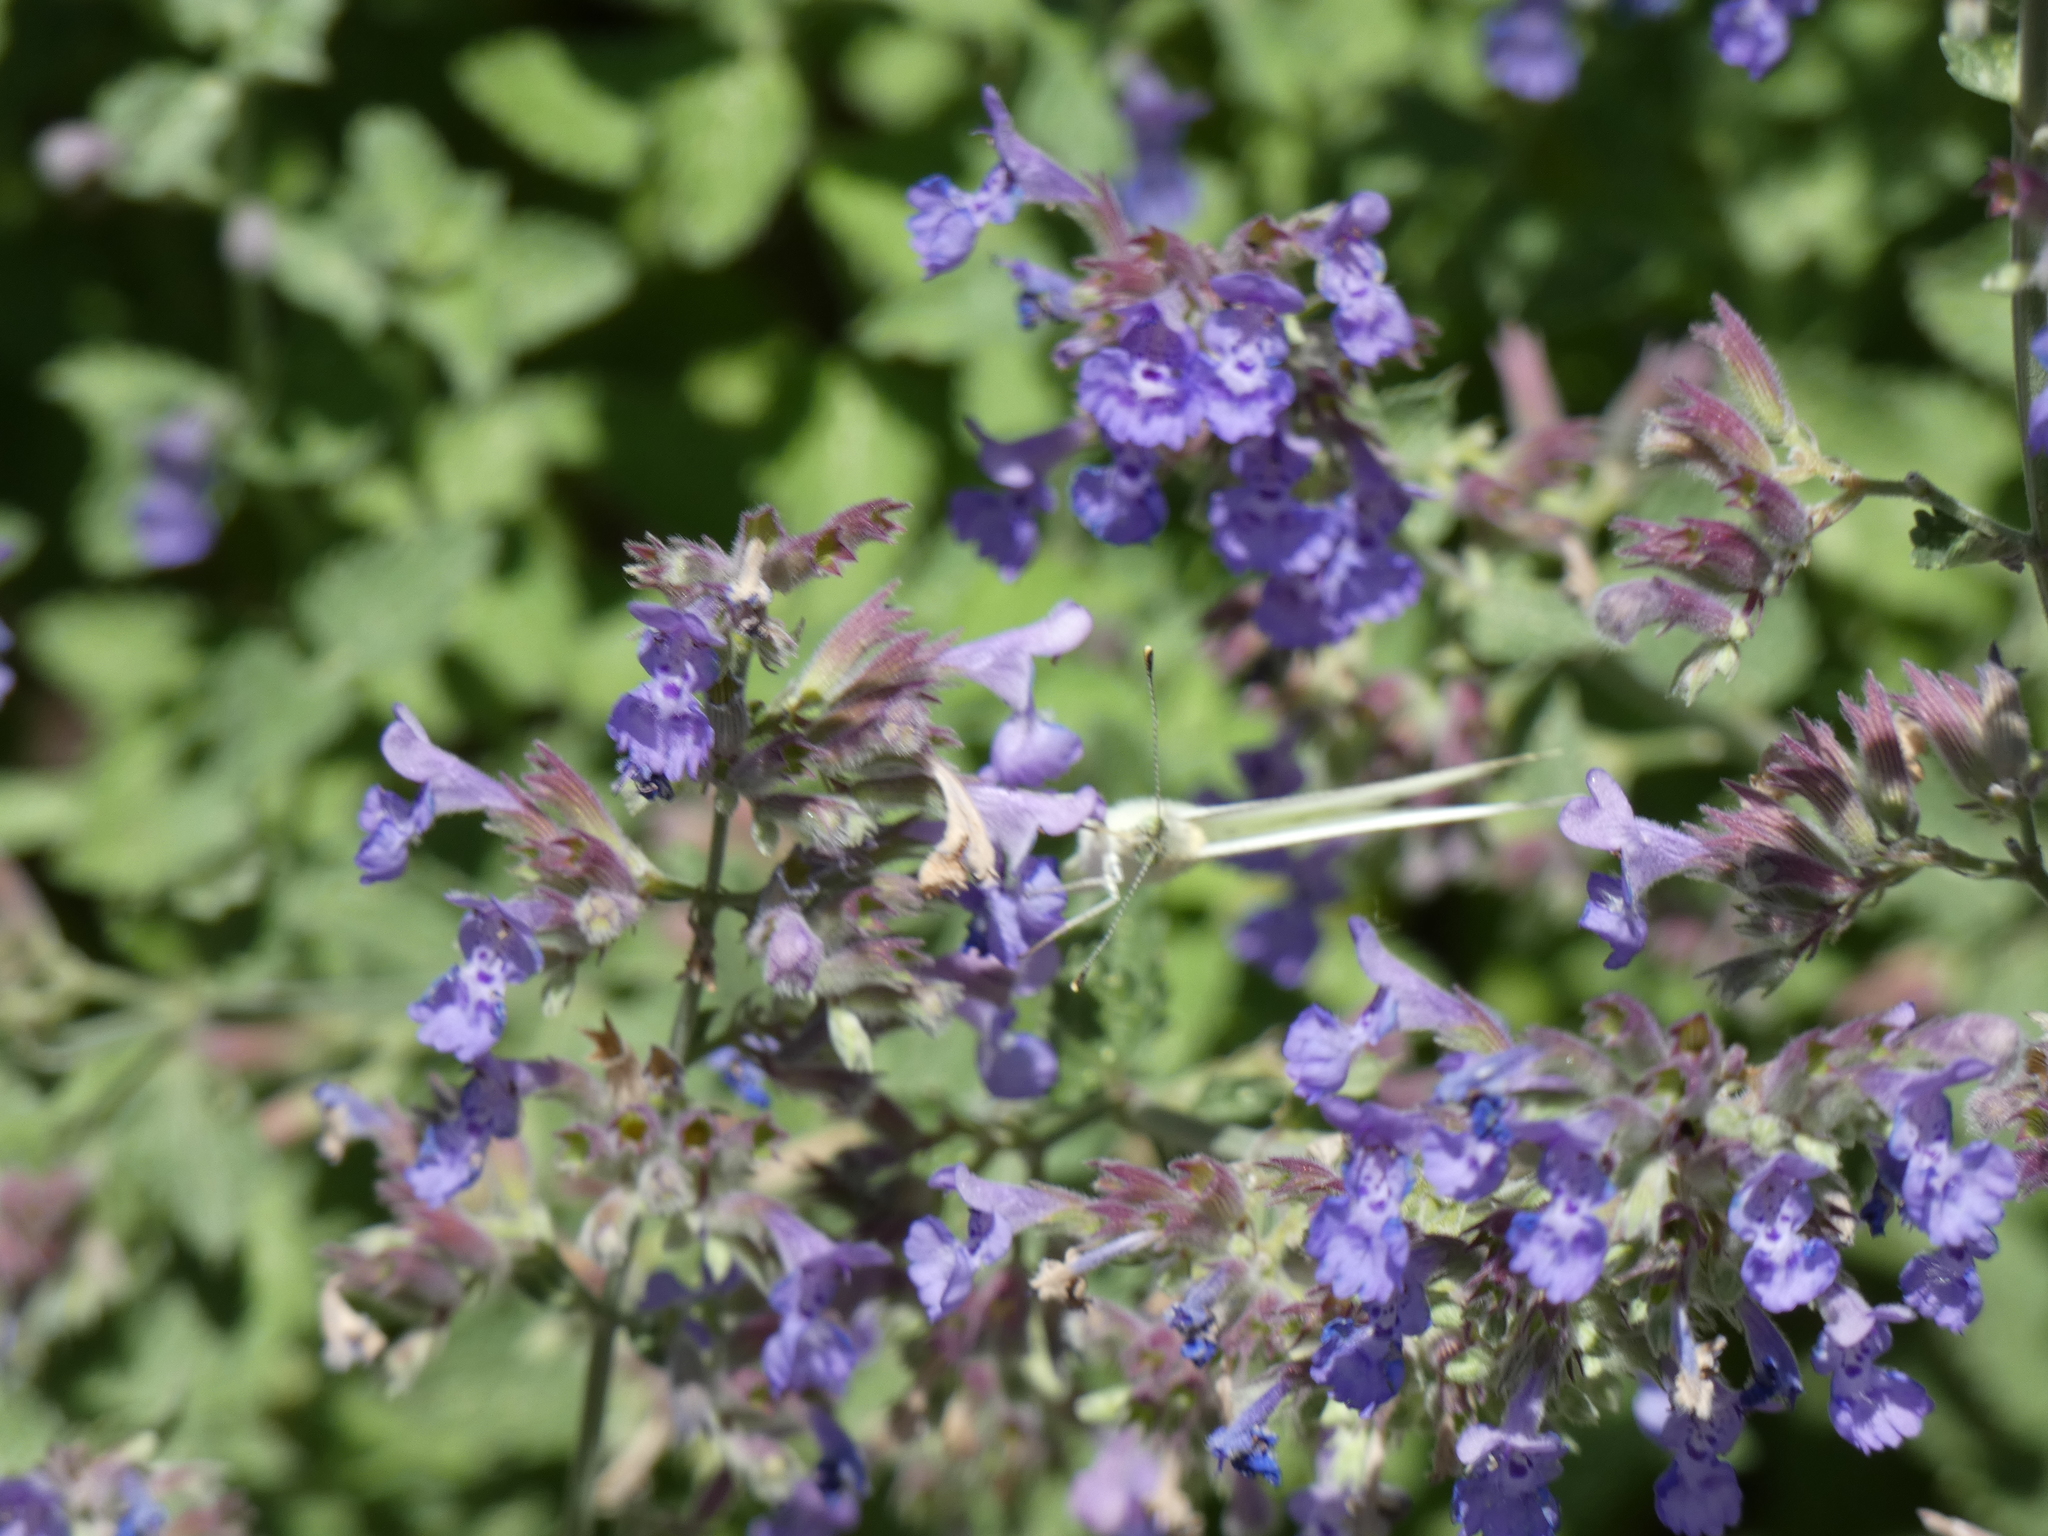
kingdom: Animalia
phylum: Arthropoda
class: Insecta
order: Lepidoptera
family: Pieridae
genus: Pieris
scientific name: Pieris rapae
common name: Small white
